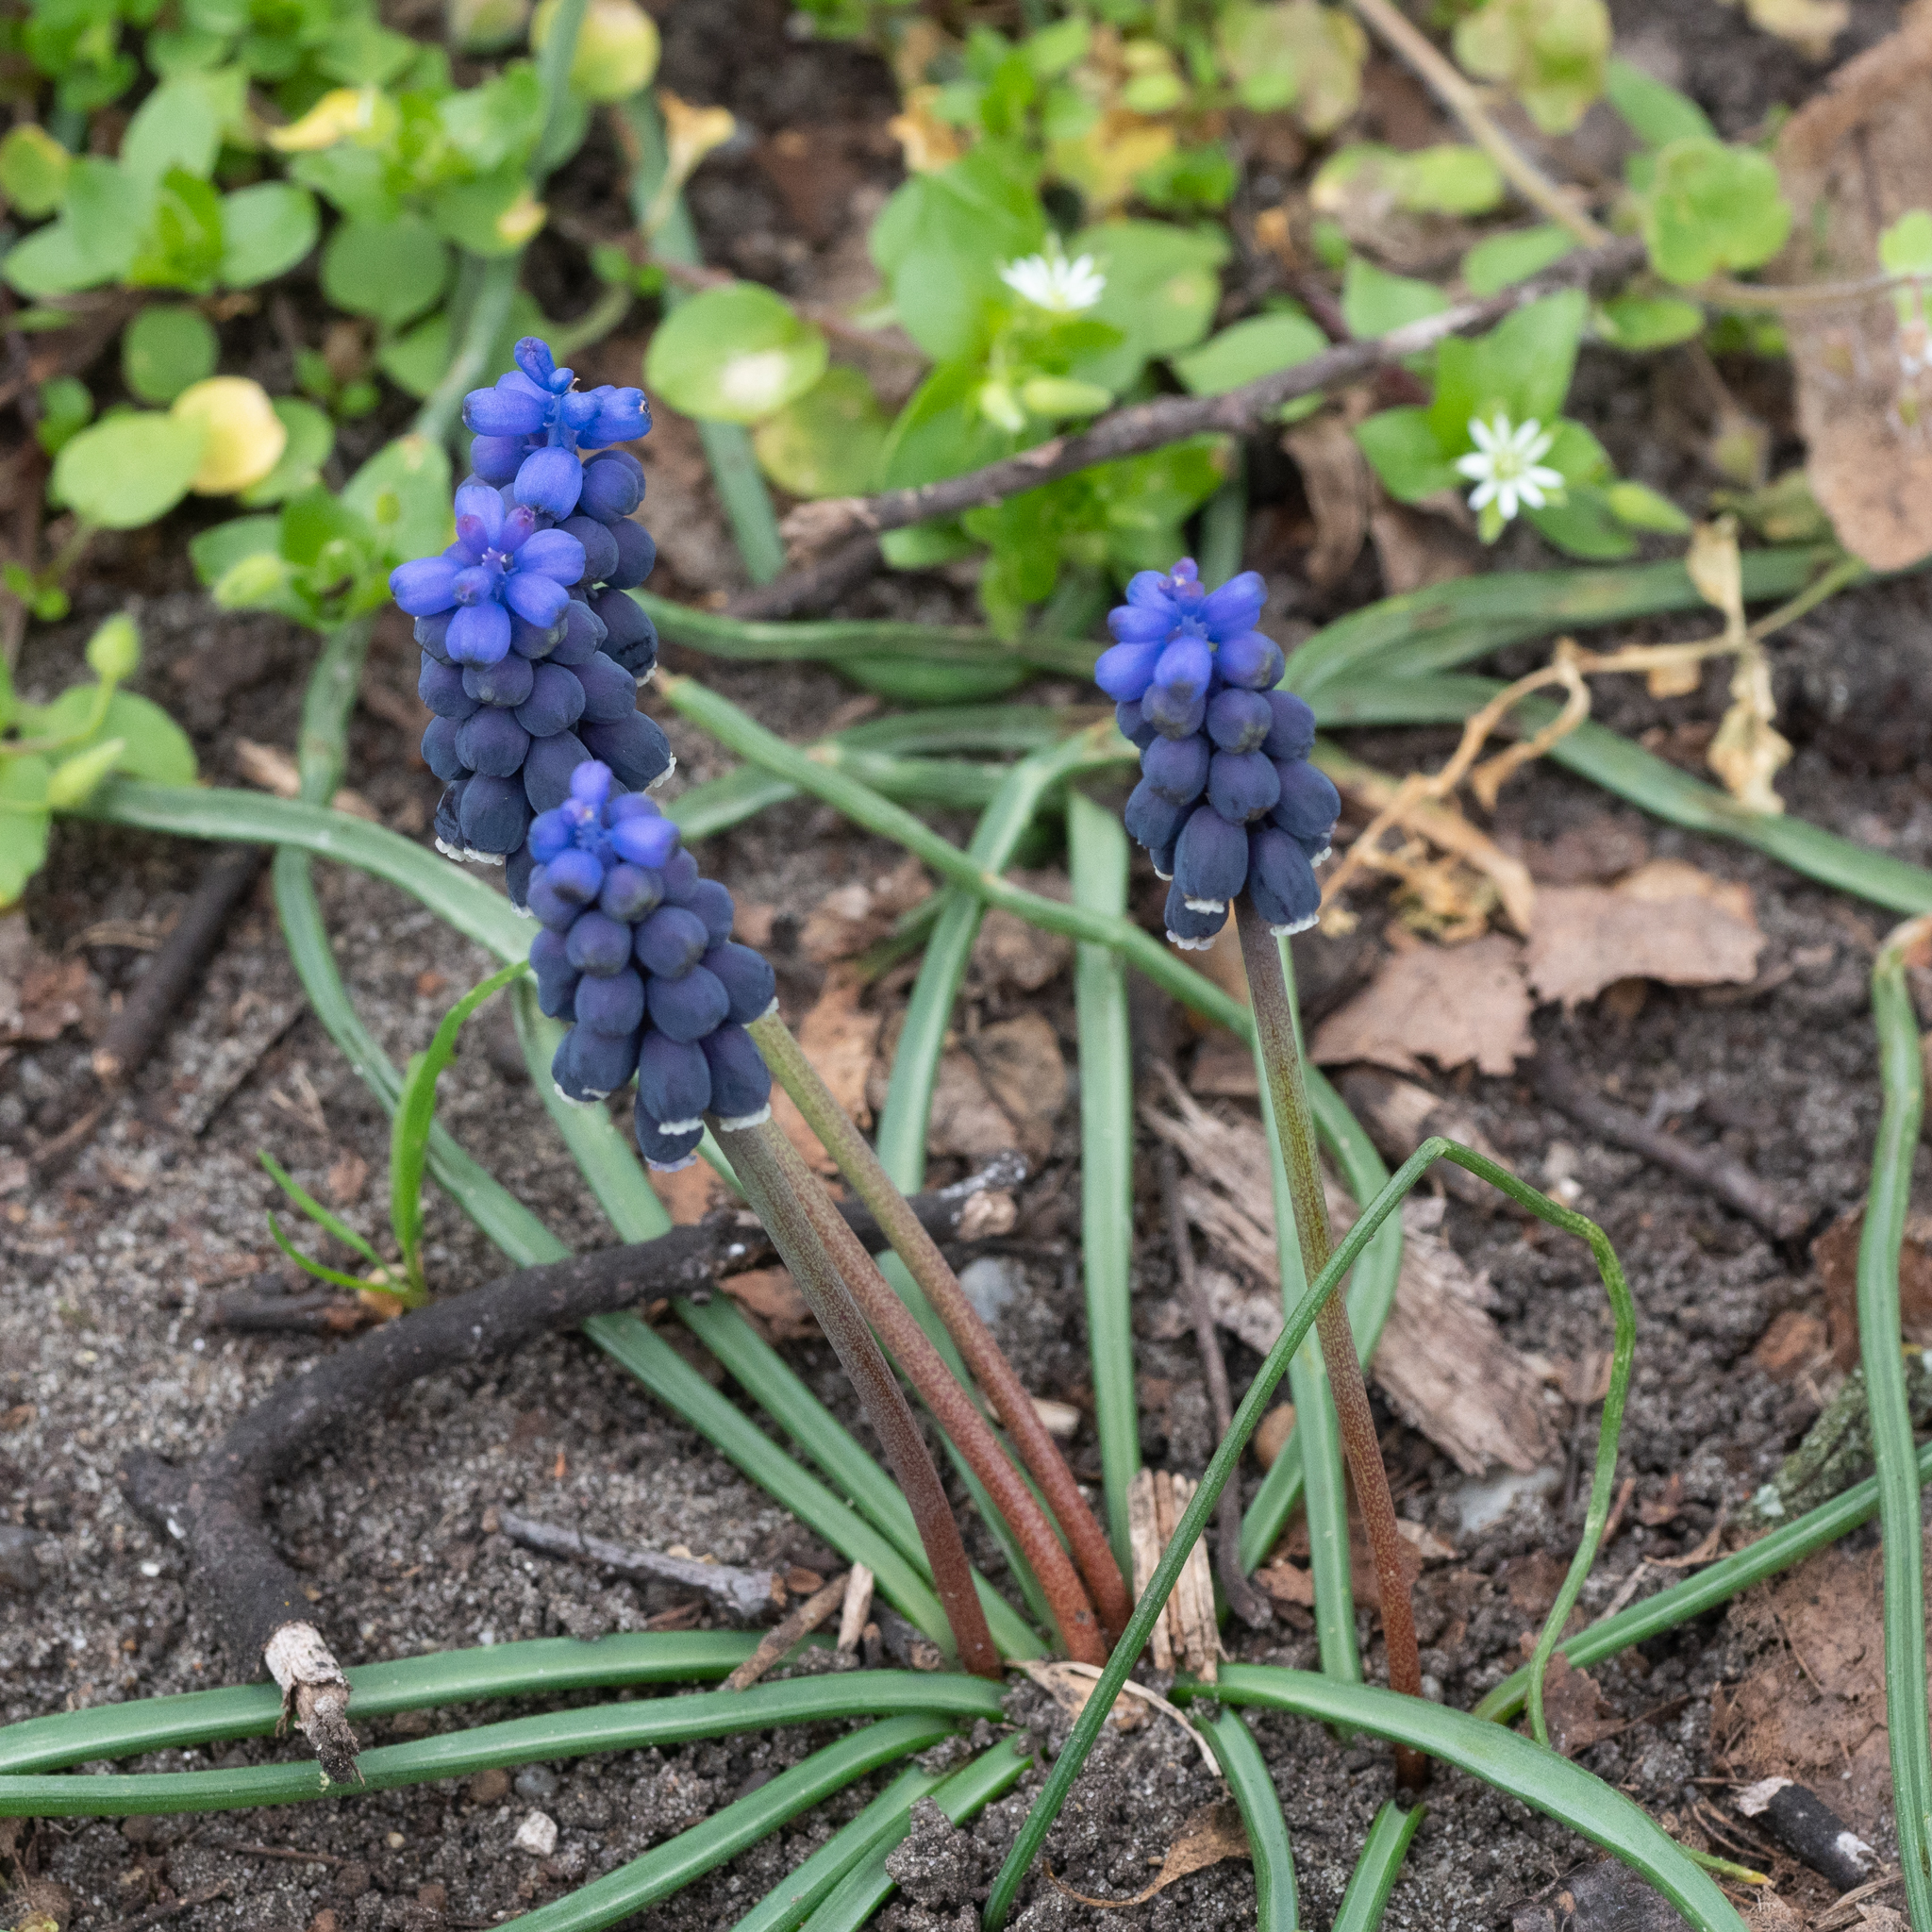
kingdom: Plantae
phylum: Tracheophyta
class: Liliopsida
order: Asparagales
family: Asparagaceae
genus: Muscari
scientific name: Muscari neglectum
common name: Grape-hyacinth
